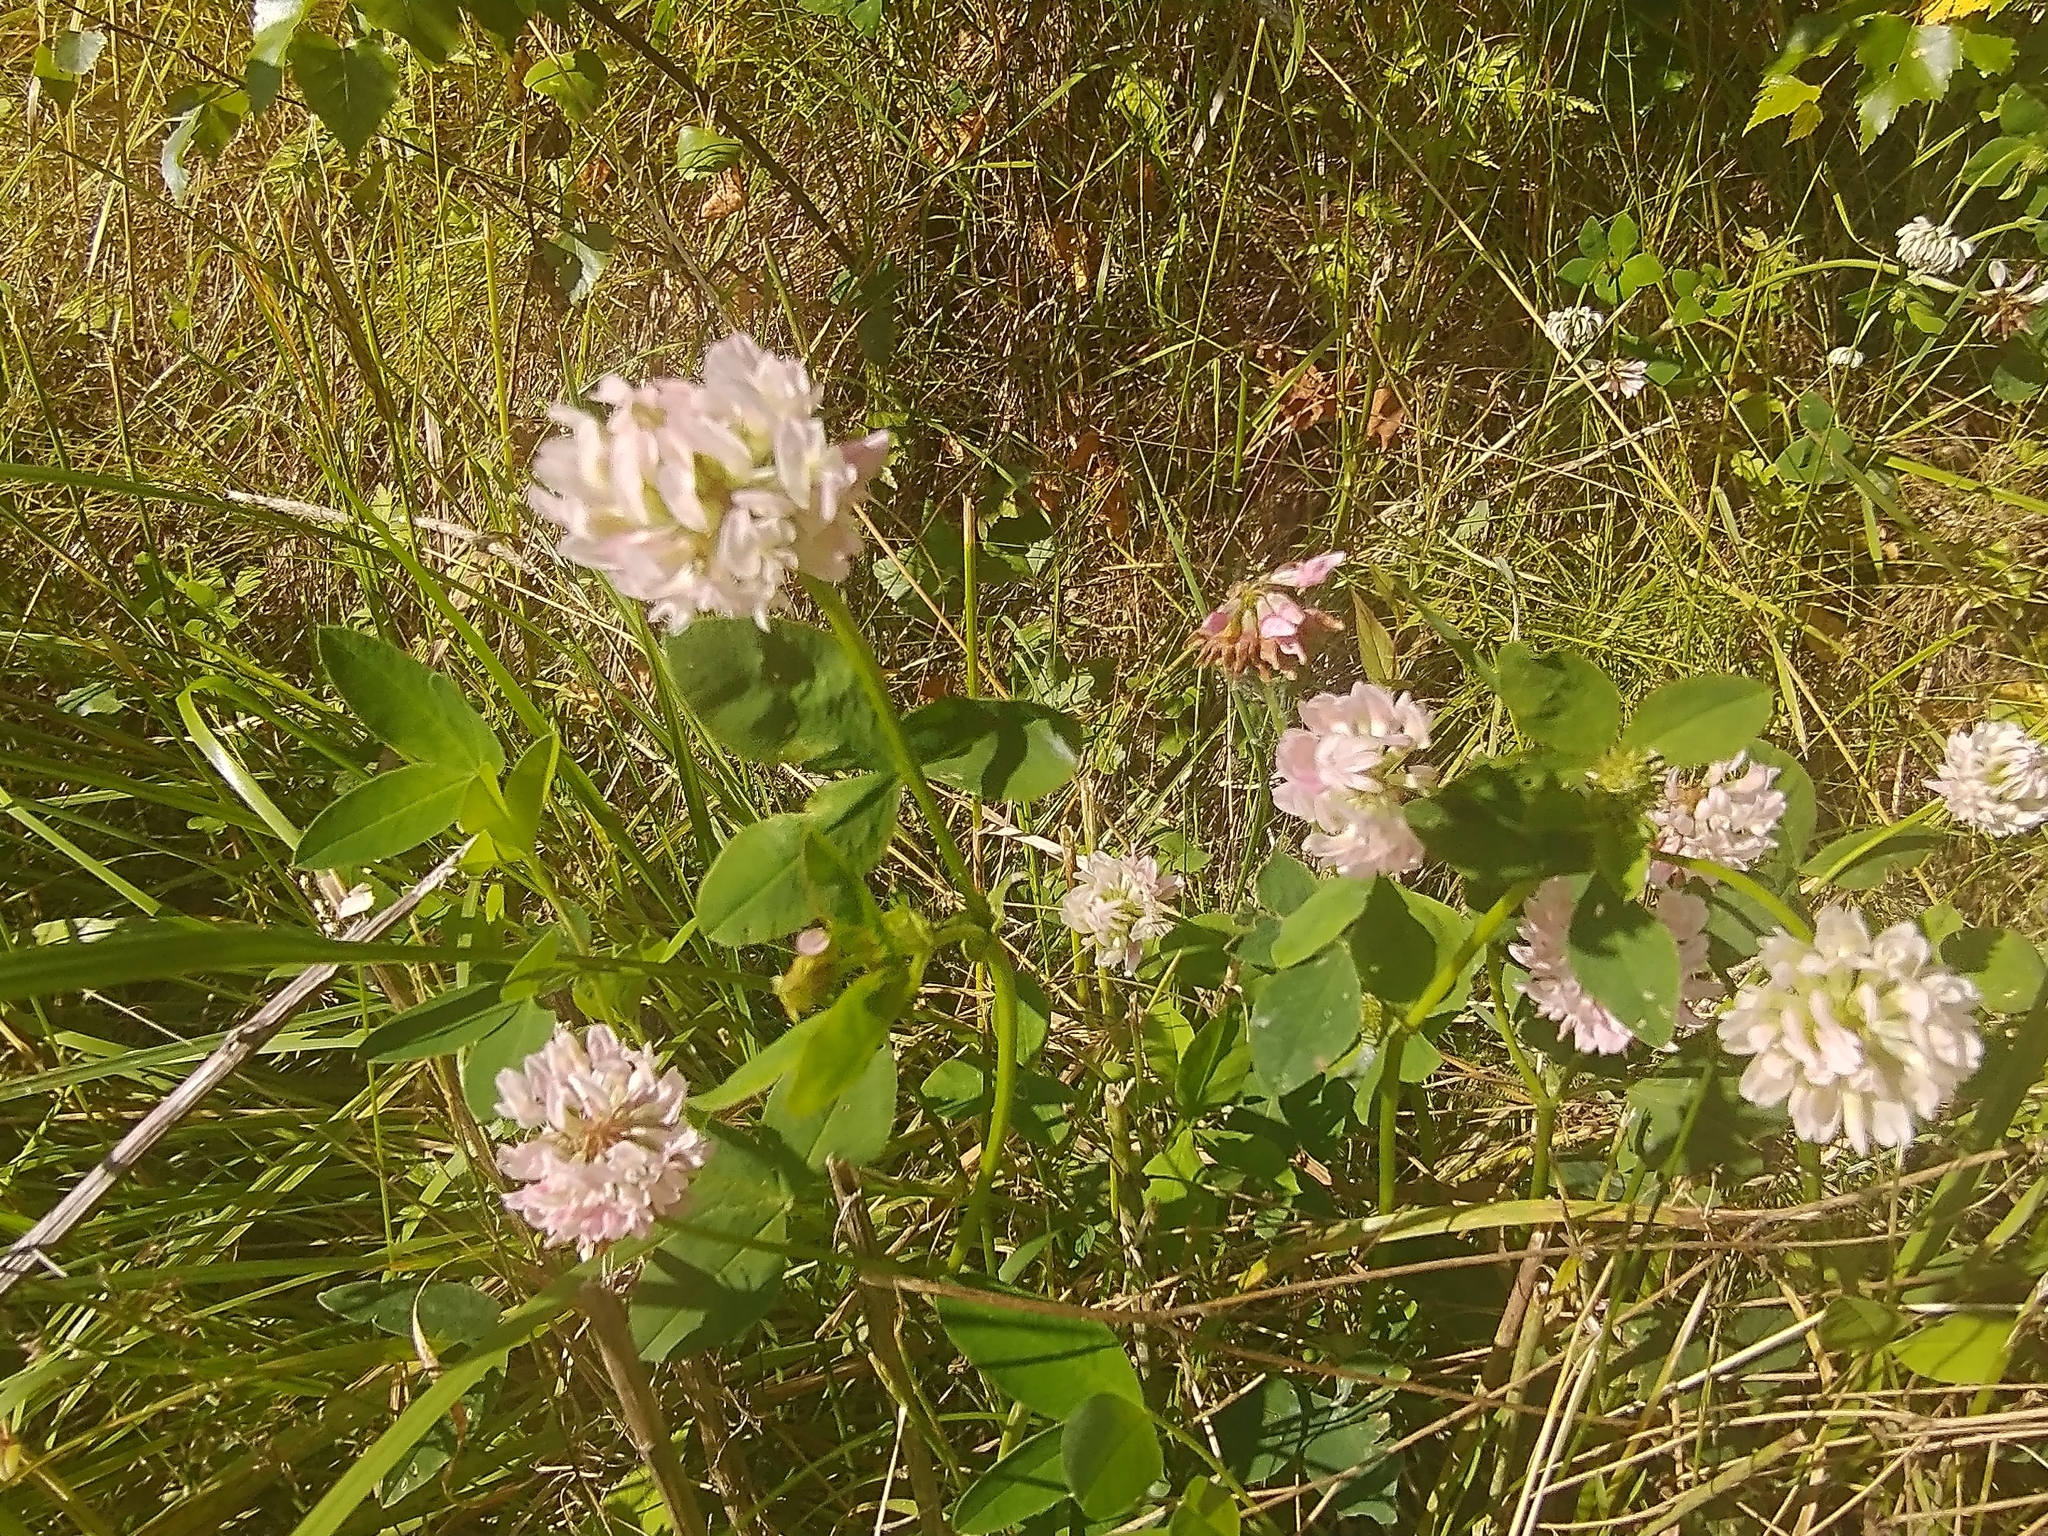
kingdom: Plantae
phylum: Tracheophyta
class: Magnoliopsida
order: Fabales
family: Fabaceae
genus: Trifolium
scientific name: Trifolium hybridum
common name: Alsike clover
